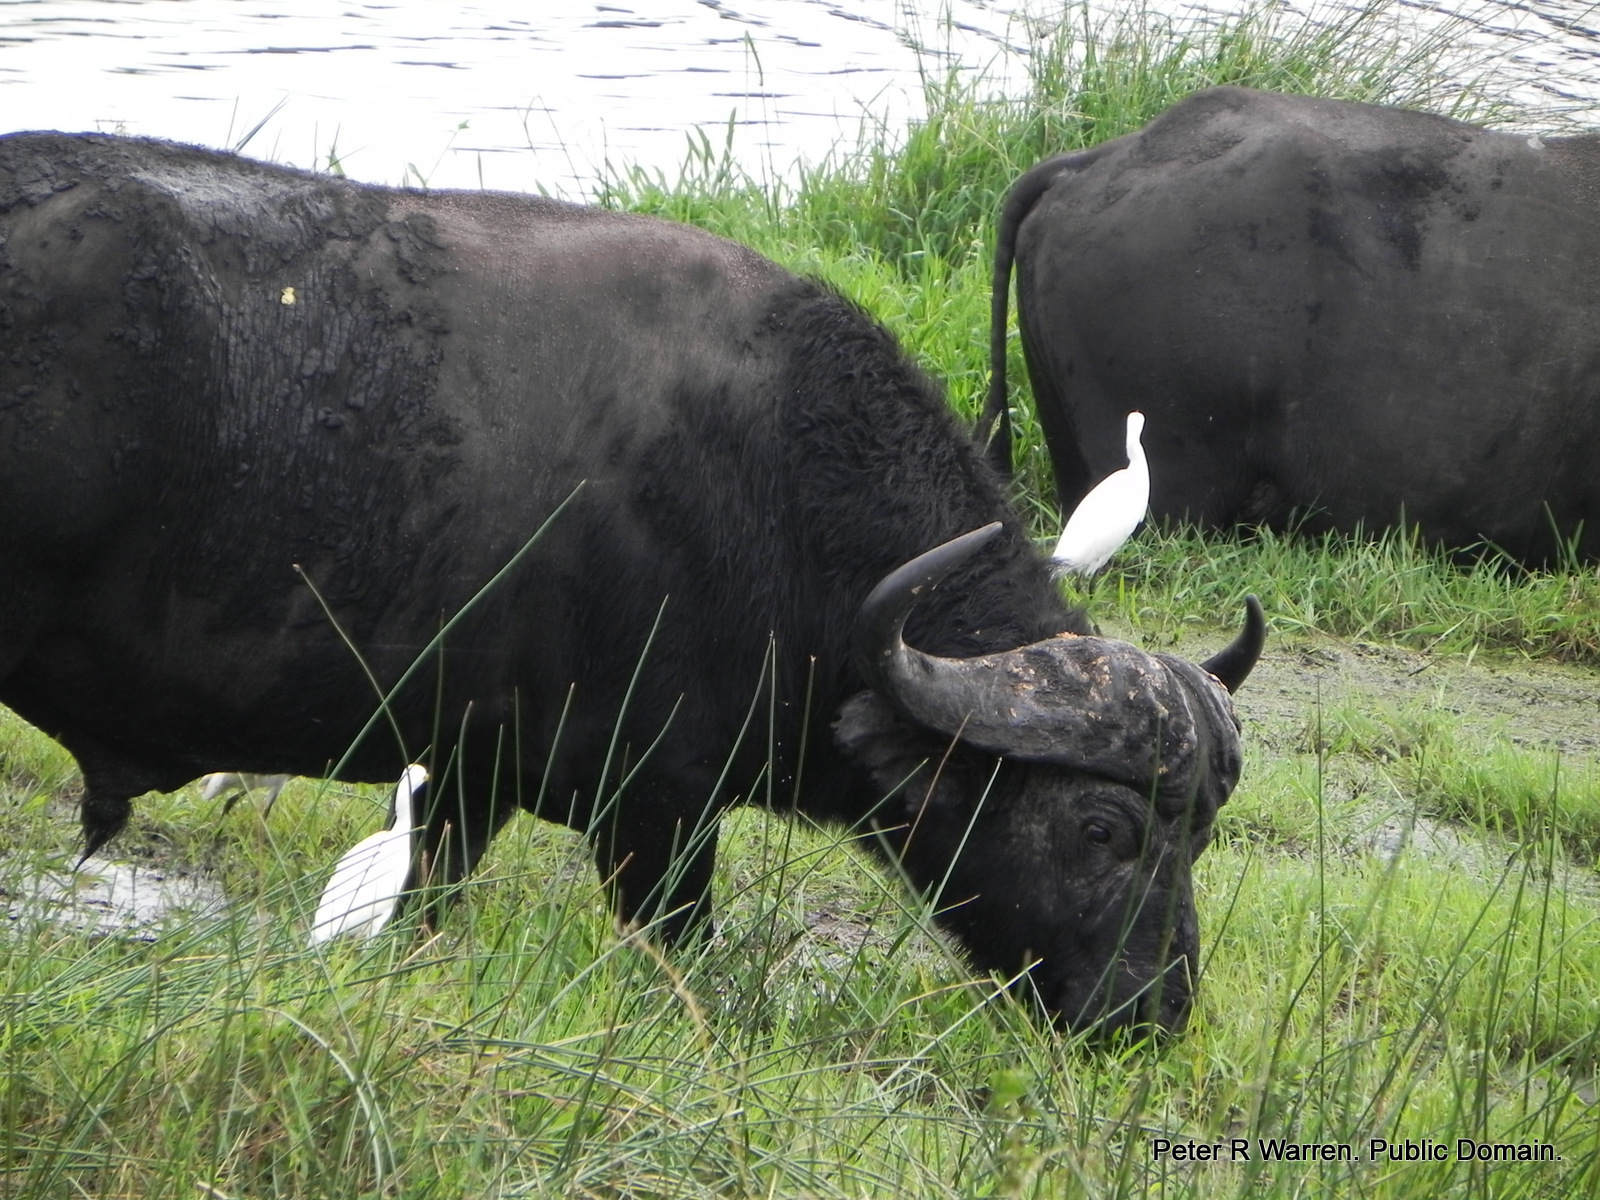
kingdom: Animalia
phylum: Chordata
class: Mammalia
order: Artiodactyla
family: Bovidae
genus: Syncerus
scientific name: Syncerus caffer
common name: African buffalo
